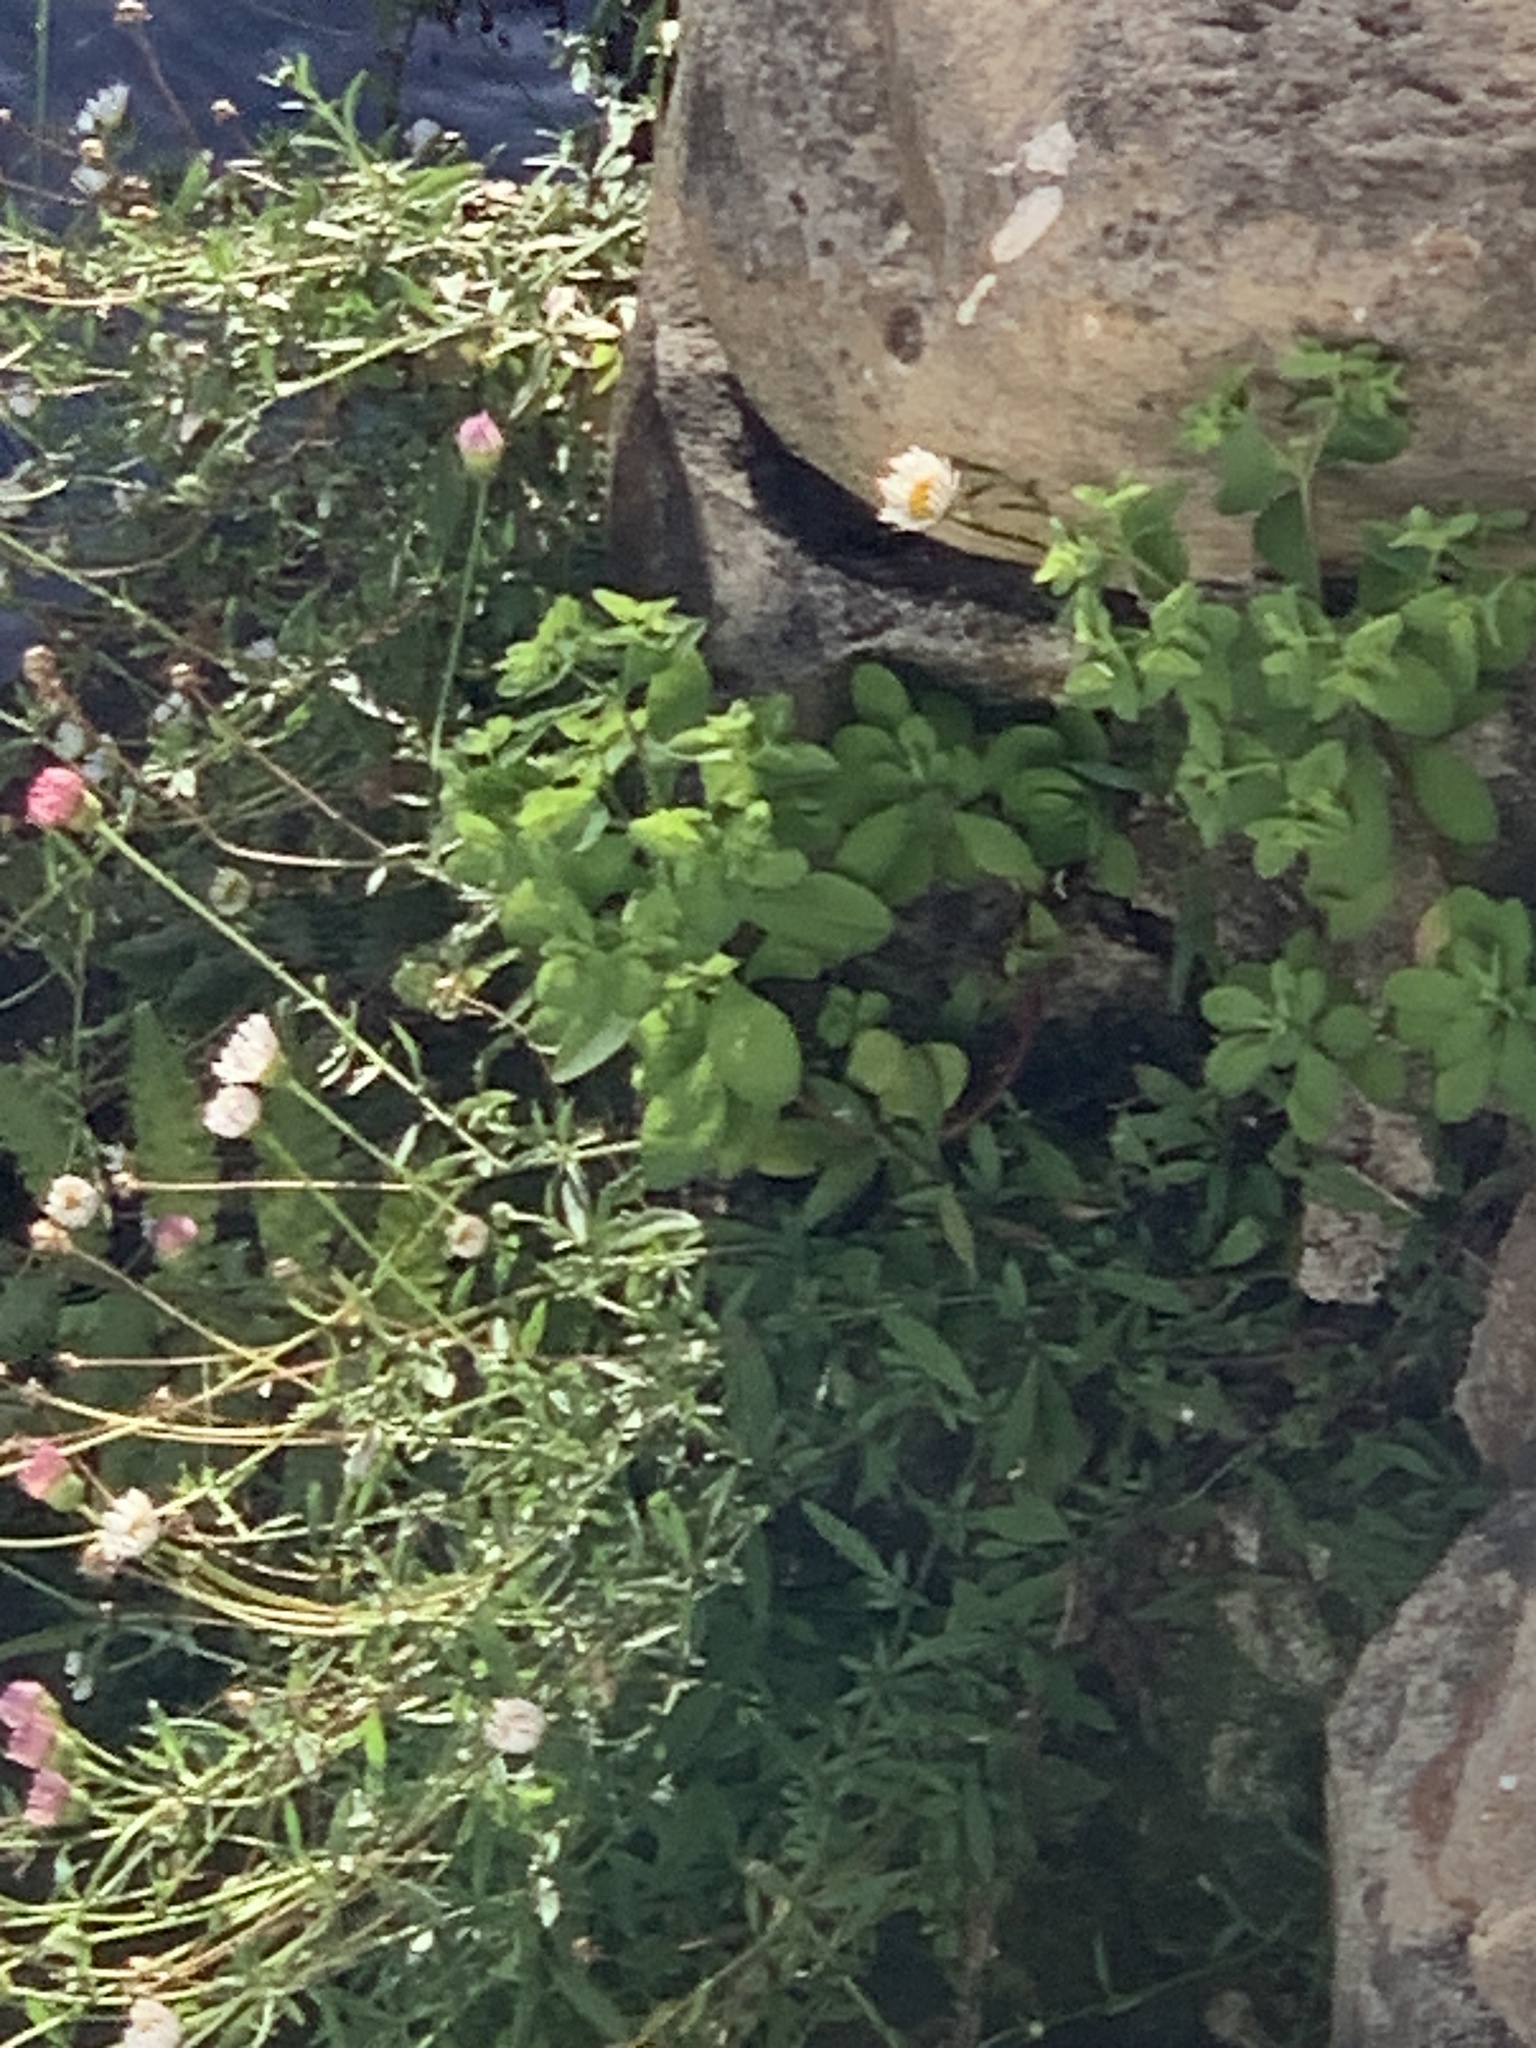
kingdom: Plantae
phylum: Tracheophyta
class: Magnoliopsida
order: Malpighiales
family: Euphorbiaceae
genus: Euphorbia
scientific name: Euphorbia peplus
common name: Petty spurge
